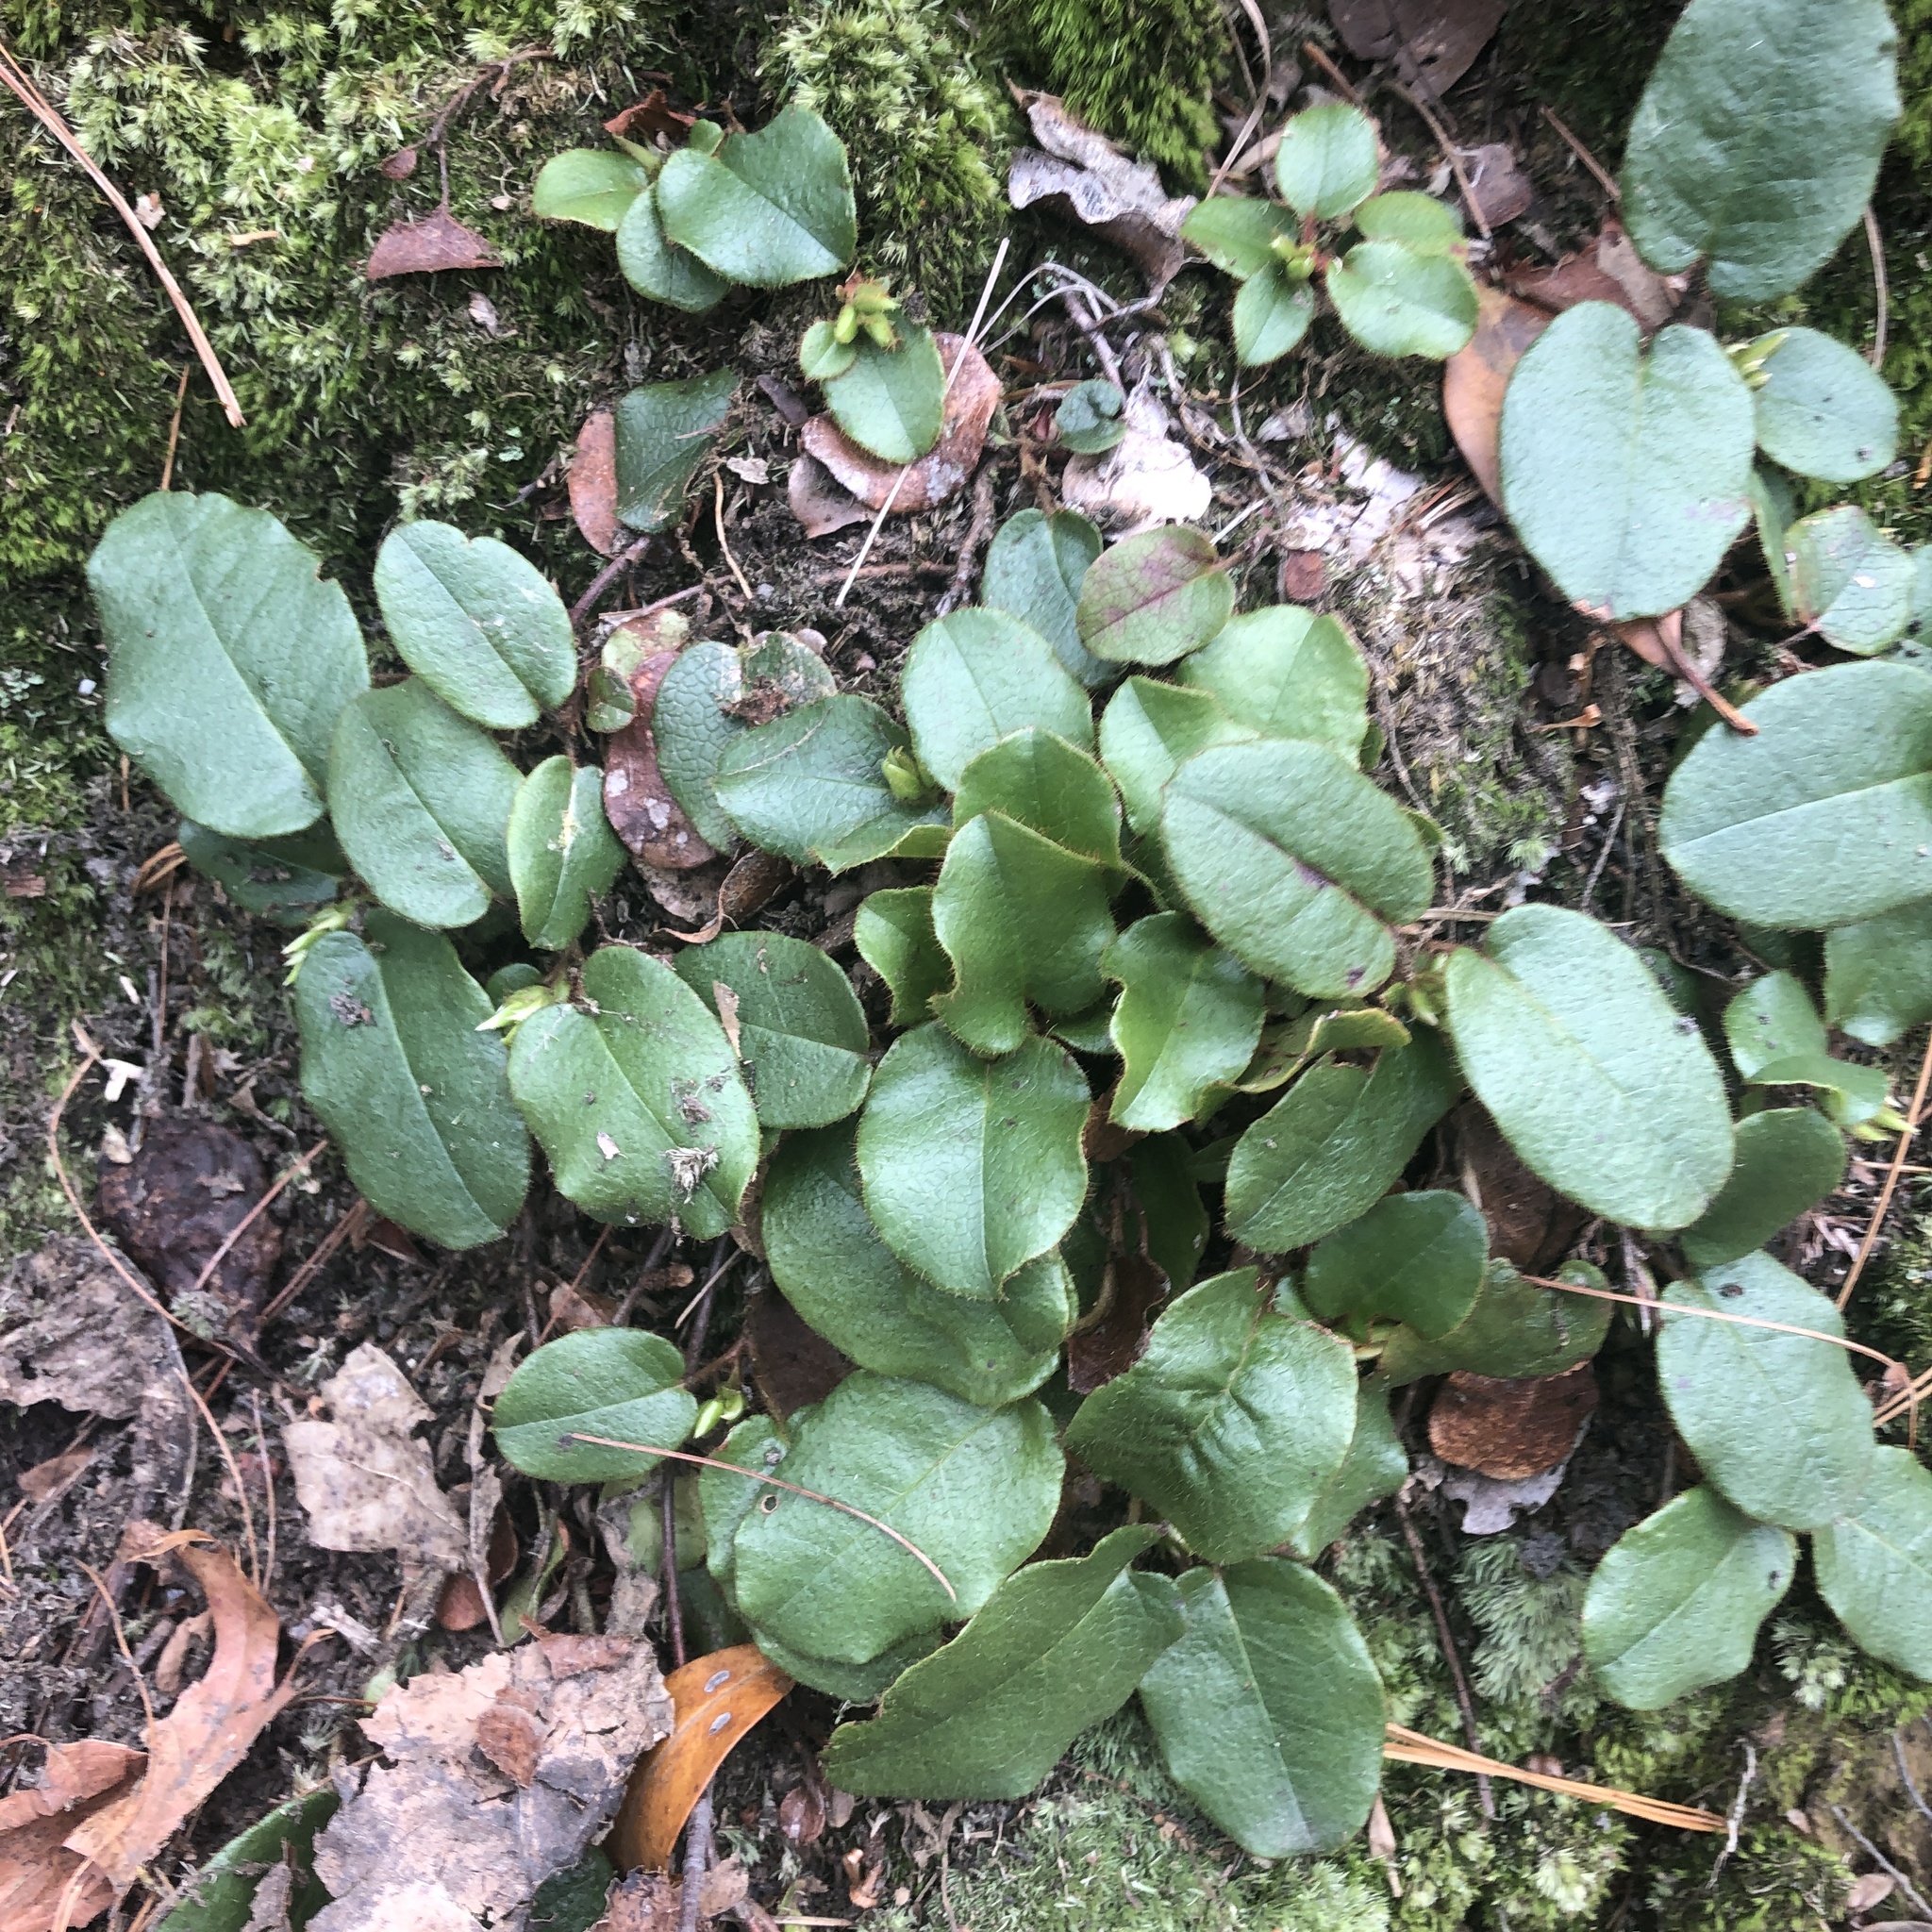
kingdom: Plantae
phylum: Tracheophyta
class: Magnoliopsida
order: Ericales
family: Ericaceae
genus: Epigaea
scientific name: Epigaea repens
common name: Gravelroot
